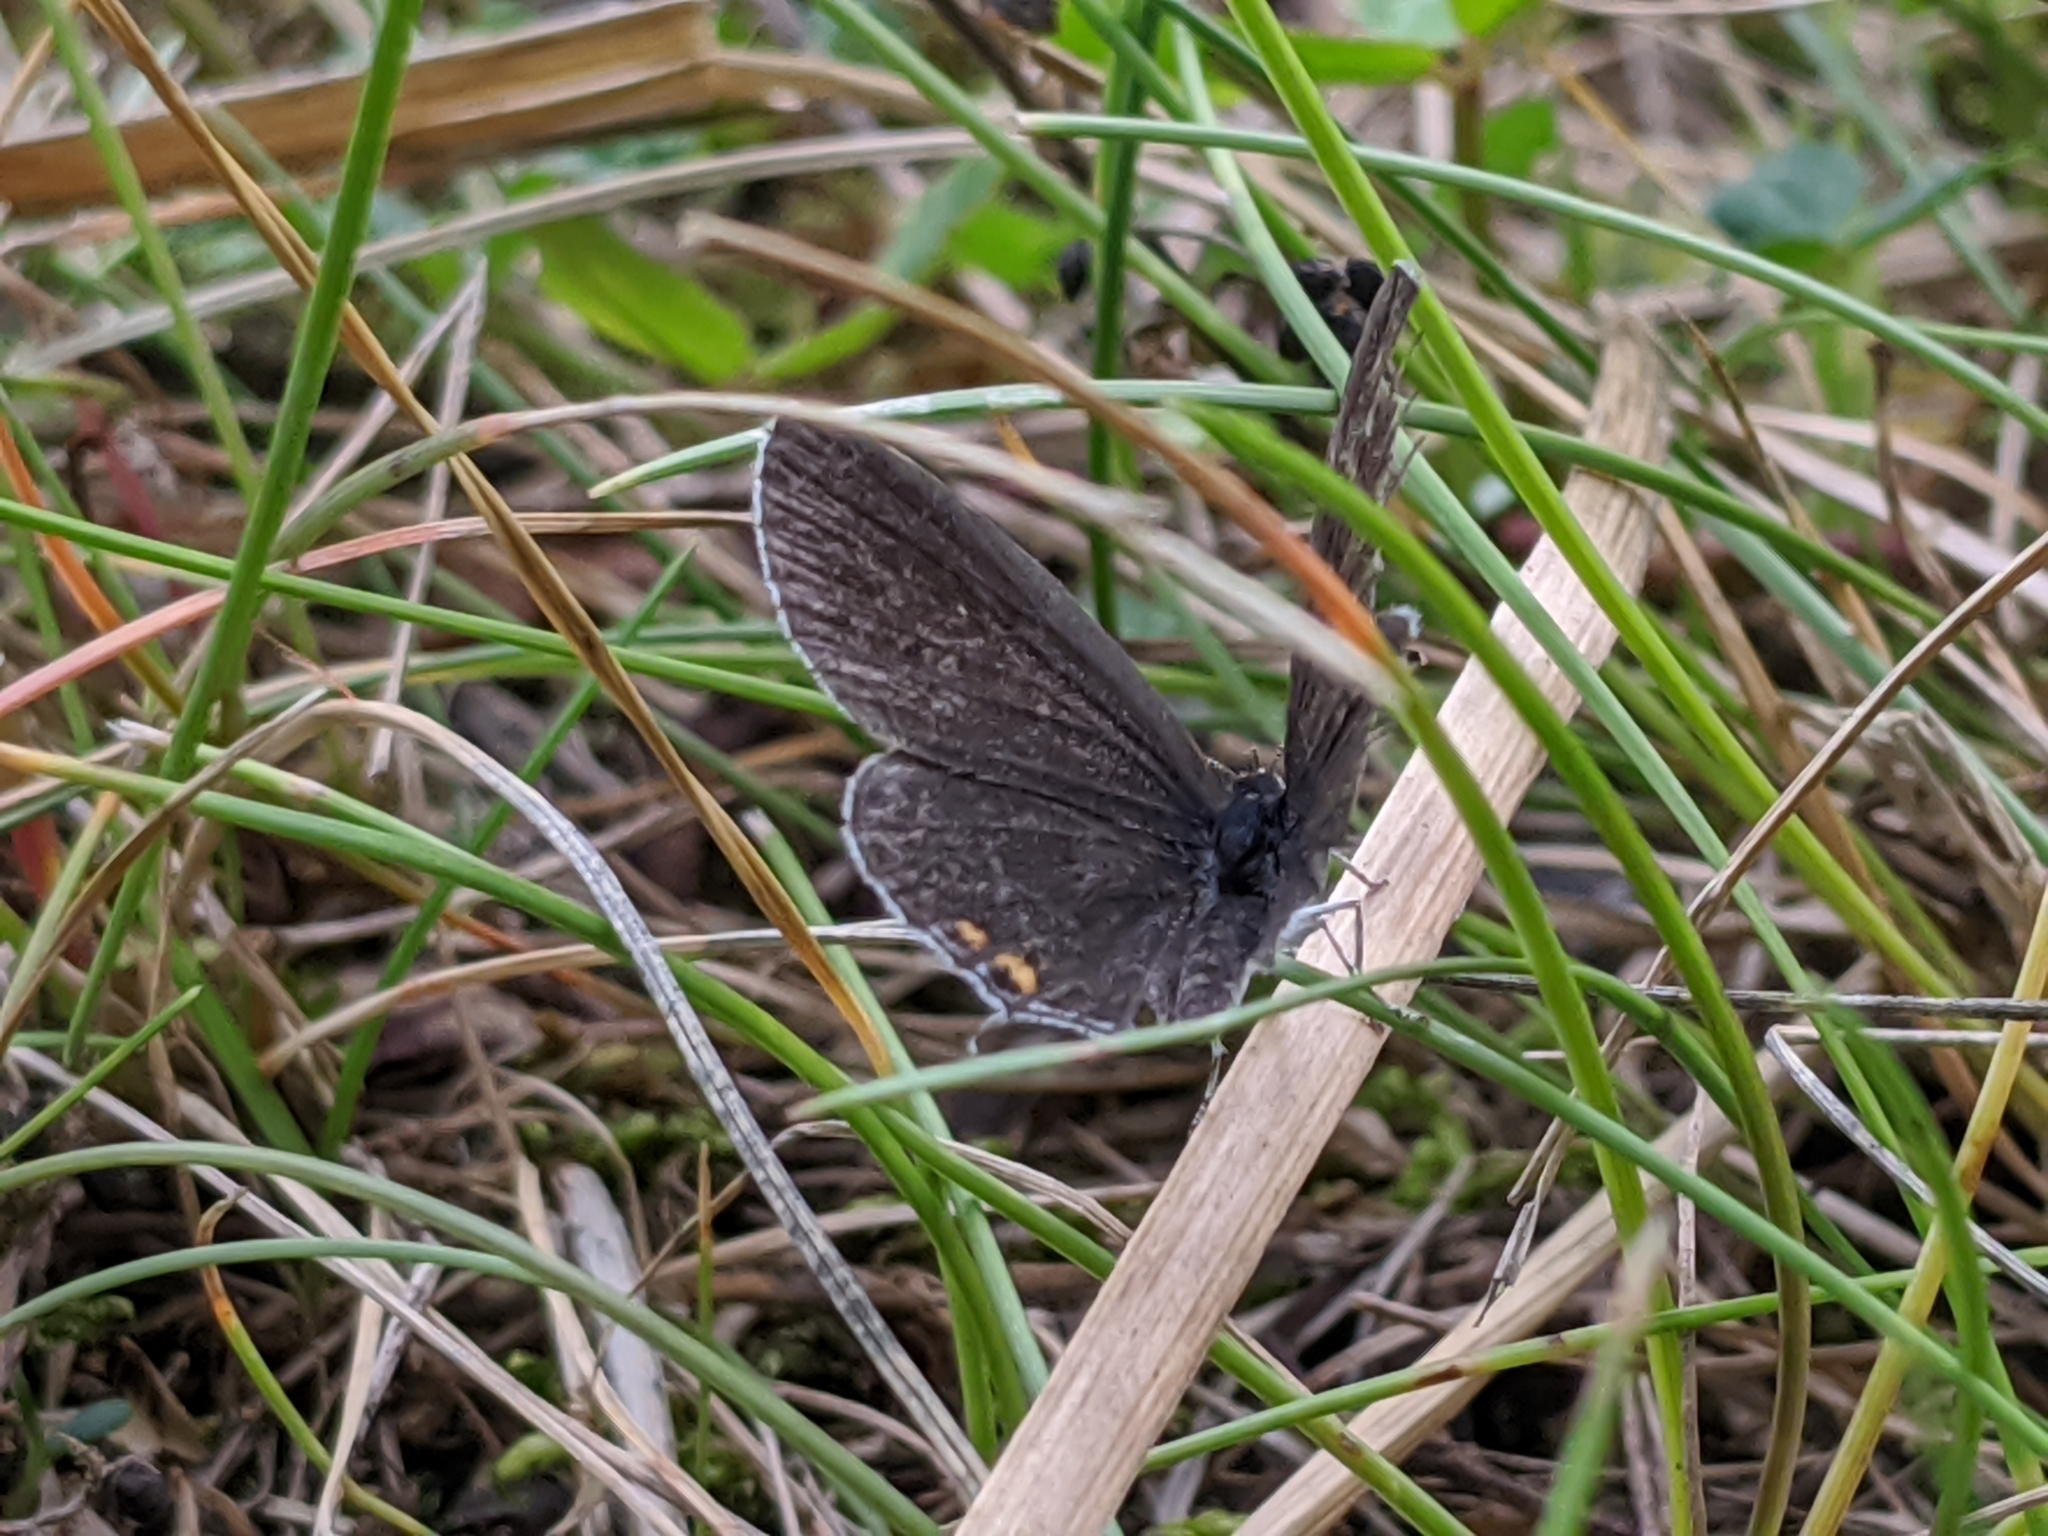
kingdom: Animalia
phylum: Arthropoda
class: Insecta
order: Lepidoptera
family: Lycaenidae
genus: Elkalyce
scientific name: Elkalyce comyntas
